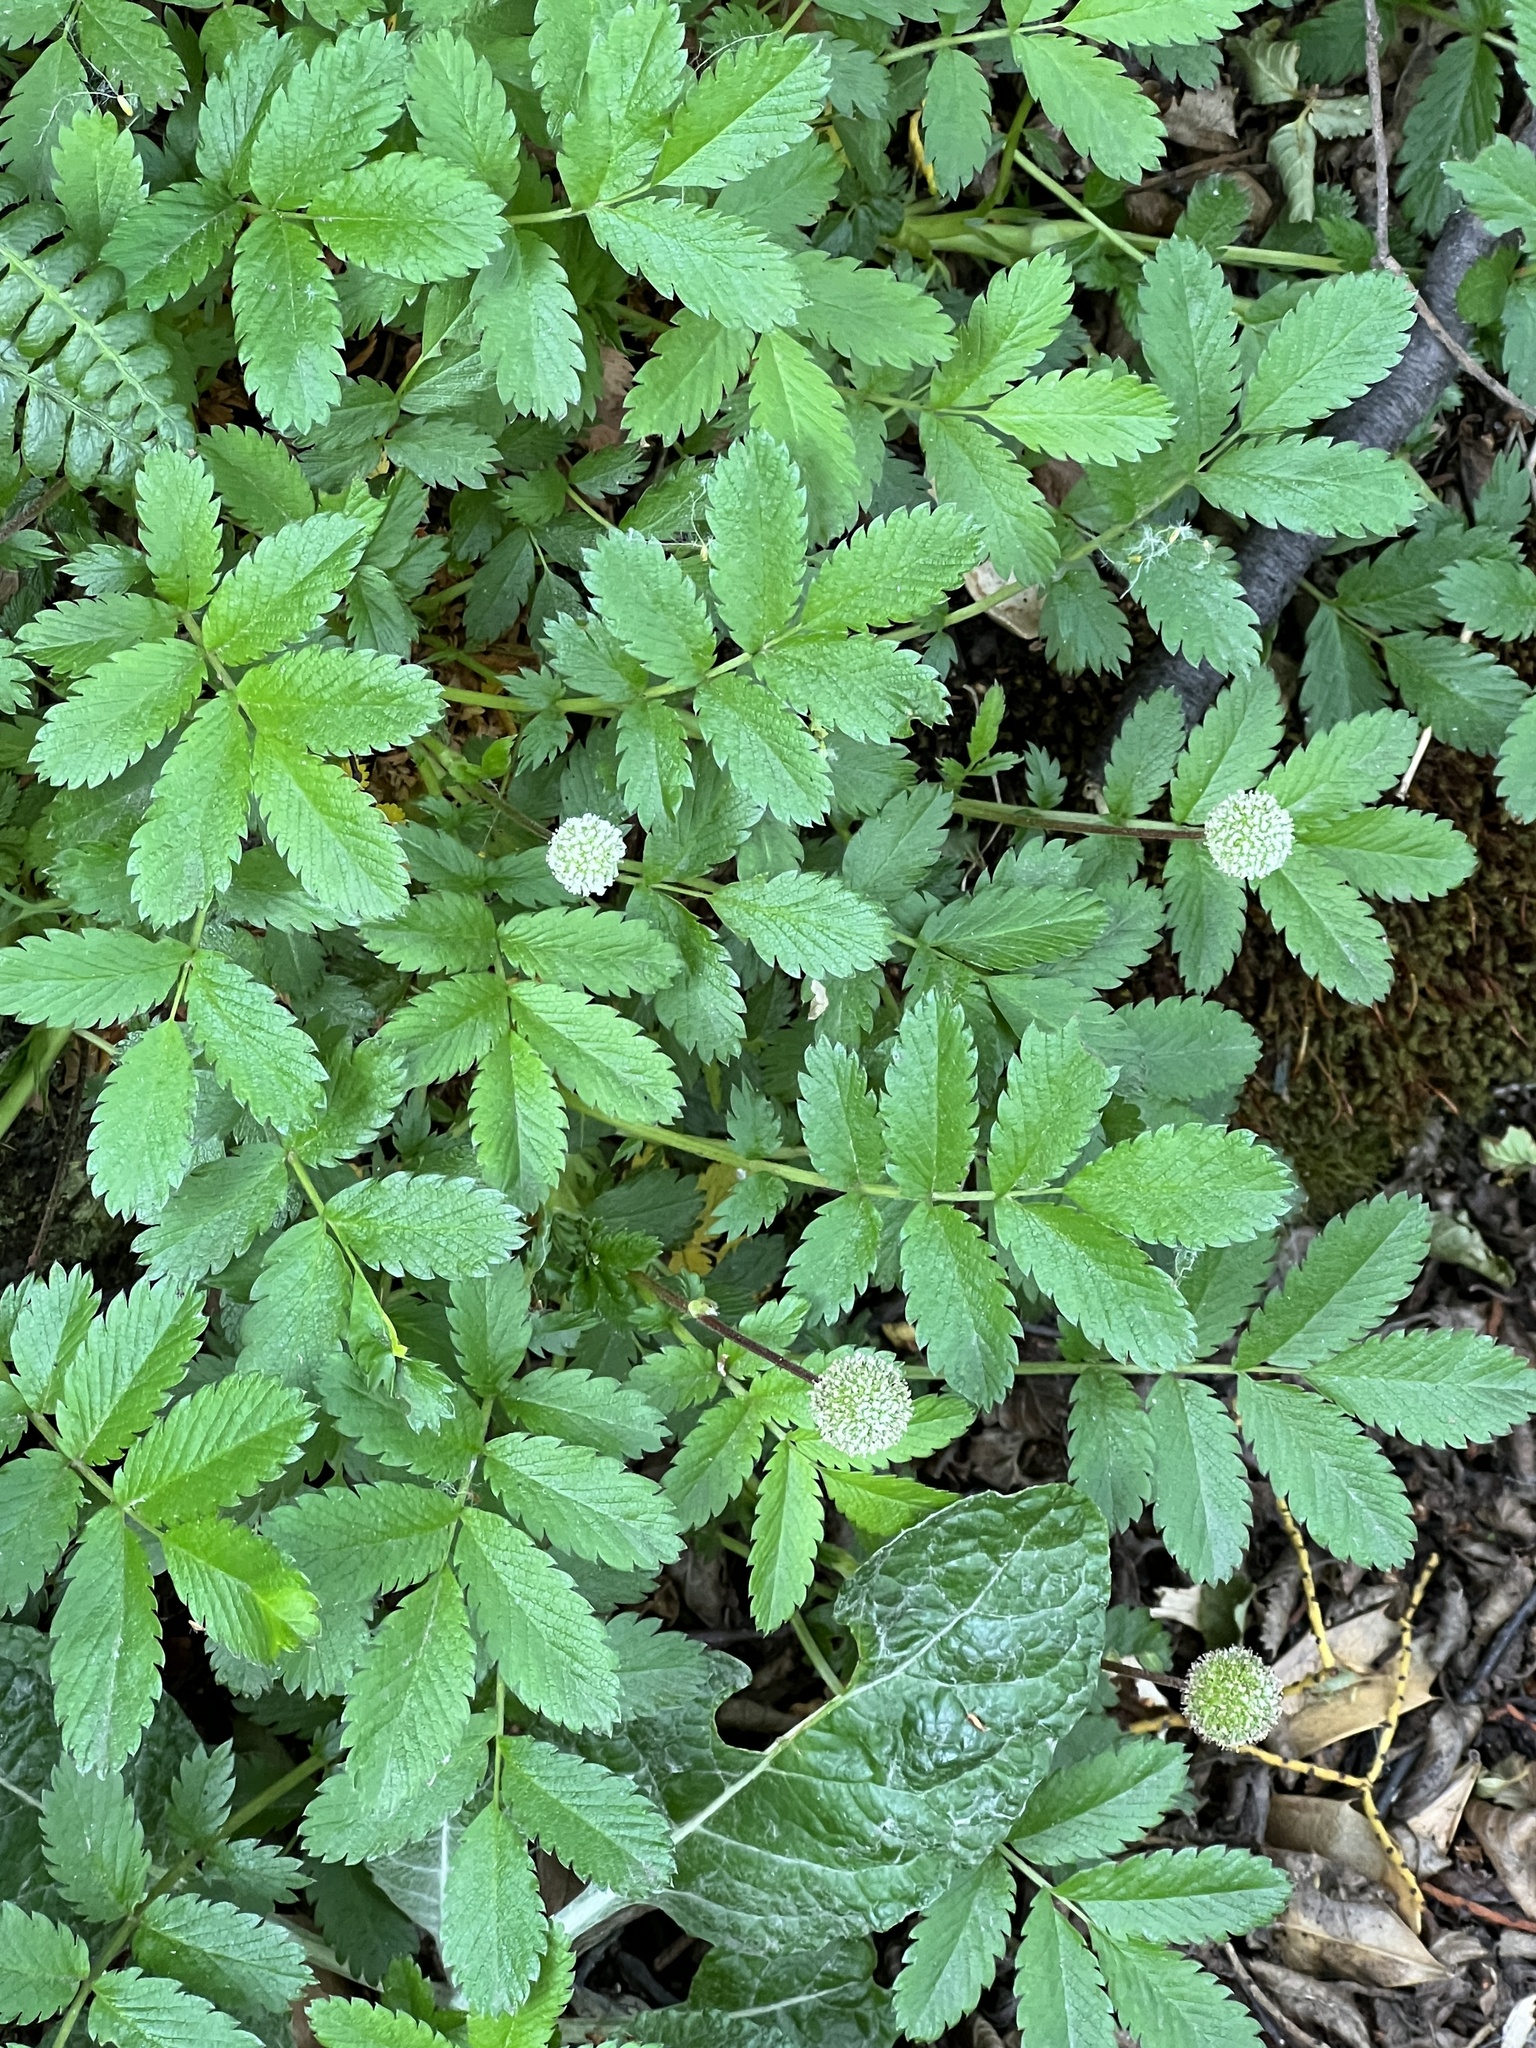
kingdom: Plantae
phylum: Tracheophyta
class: Magnoliopsida
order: Rosales
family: Rosaceae
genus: Acaena
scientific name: Acaena ovalifolia
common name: Two-spined acaena
